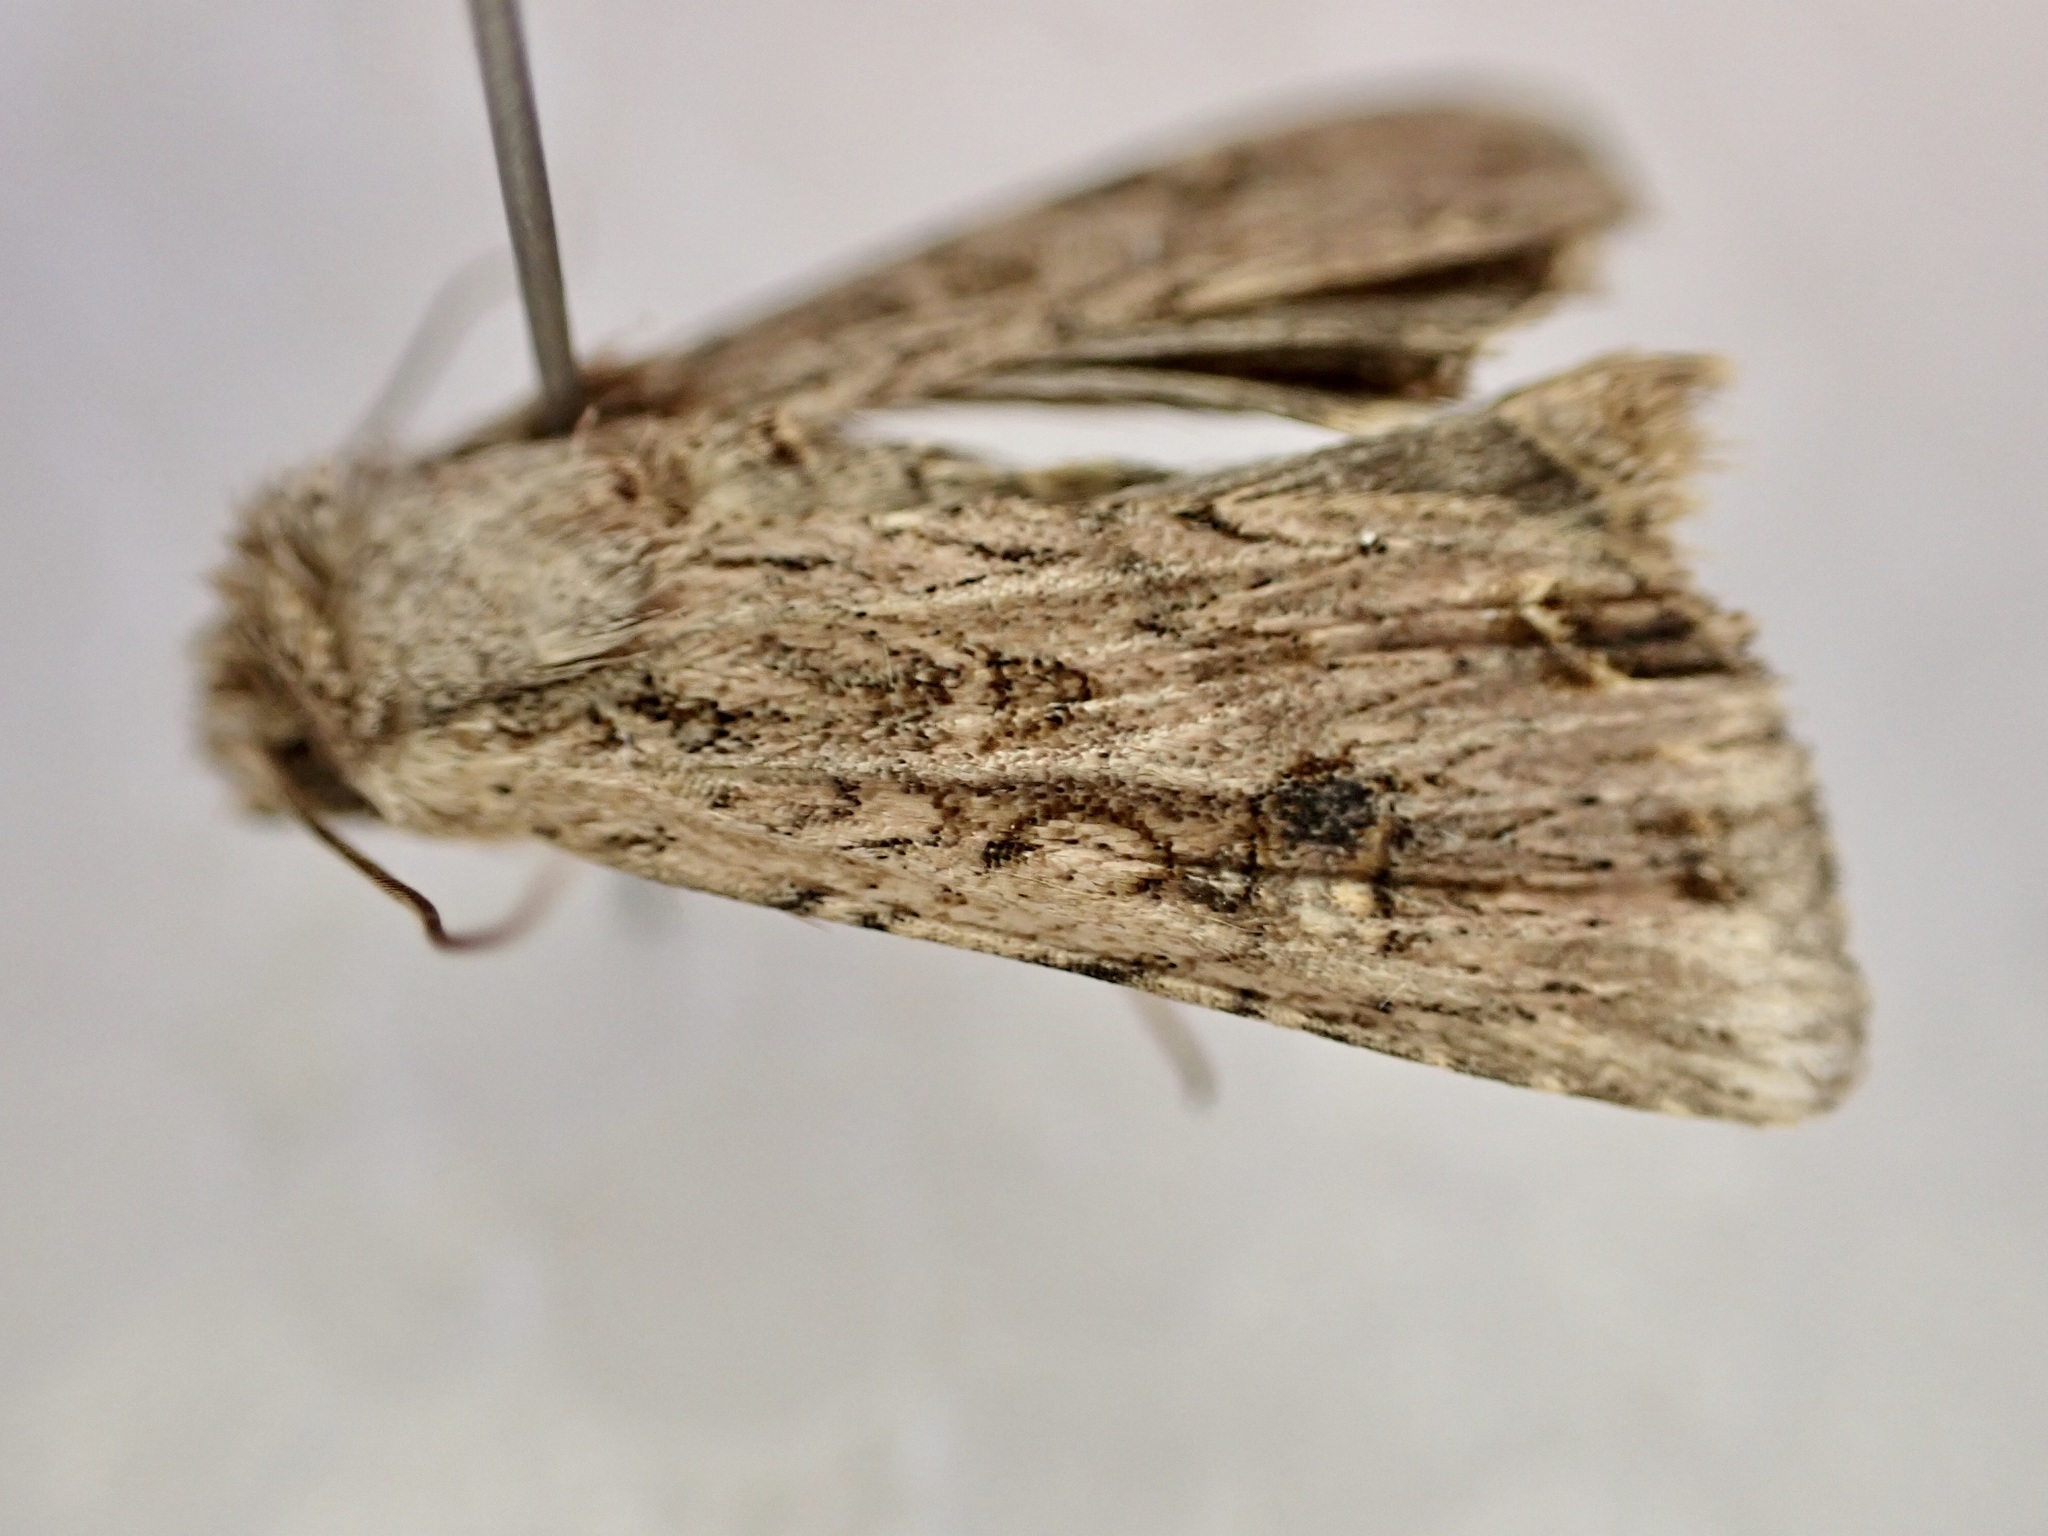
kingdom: Animalia
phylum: Arthropoda
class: Insecta
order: Lepidoptera
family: Noctuidae
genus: Ichneutica
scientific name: Ichneutica lignana
